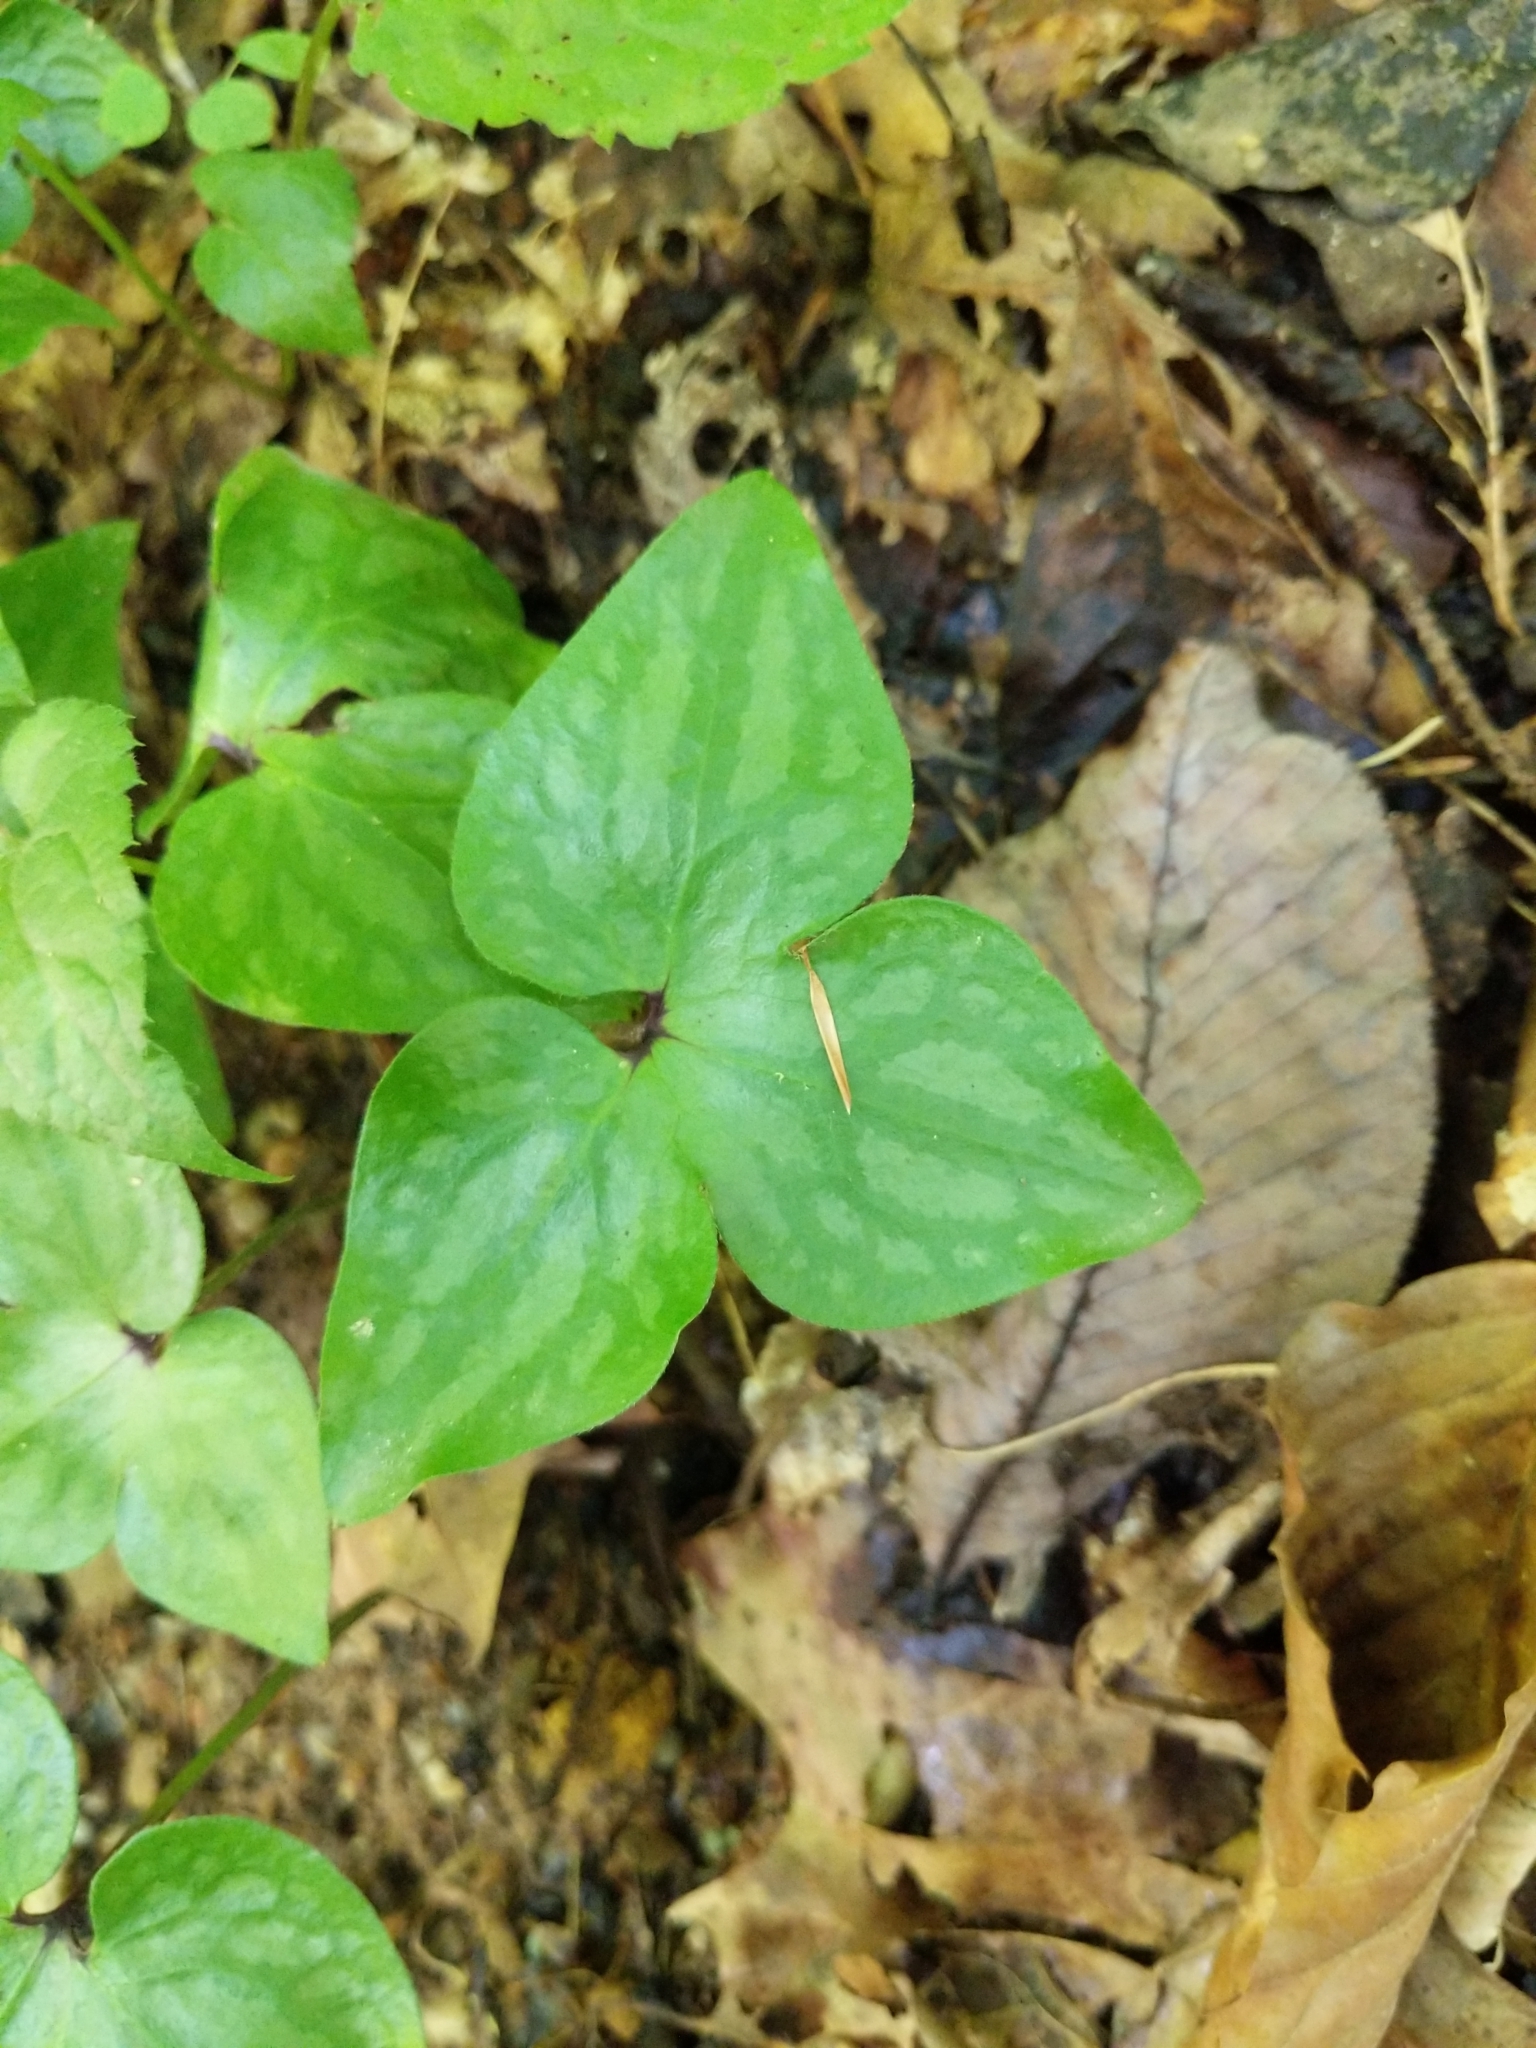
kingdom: Plantae
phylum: Tracheophyta
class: Magnoliopsida
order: Ranunculales
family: Ranunculaceae
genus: Hepatica
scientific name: Hepatica acutiloba
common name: Sharp-lobed hepatica
